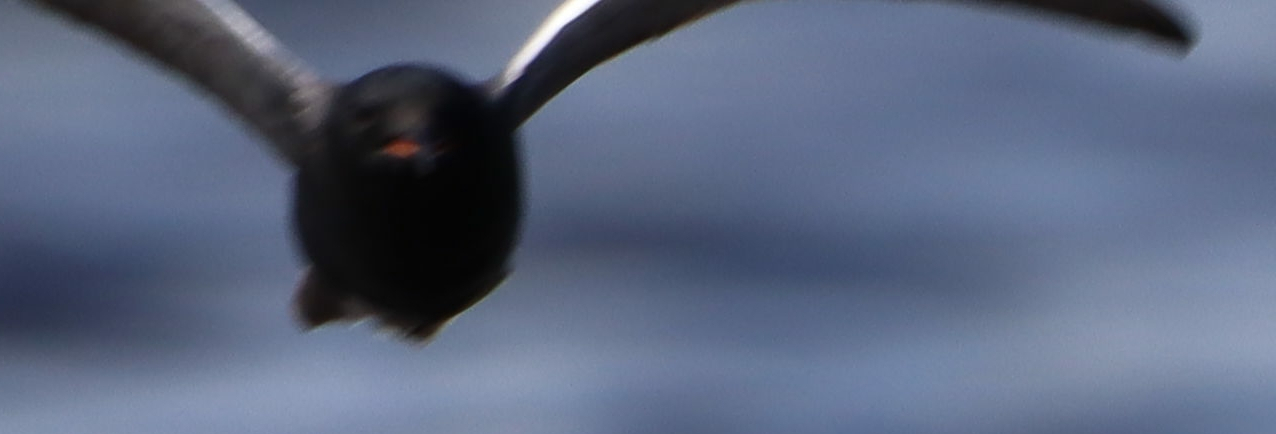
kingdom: Animalia
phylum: Chordata
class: Aves
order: Charadriiformes
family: Laridae
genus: Chlidonias
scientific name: Chlidonias niger
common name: Black tern
